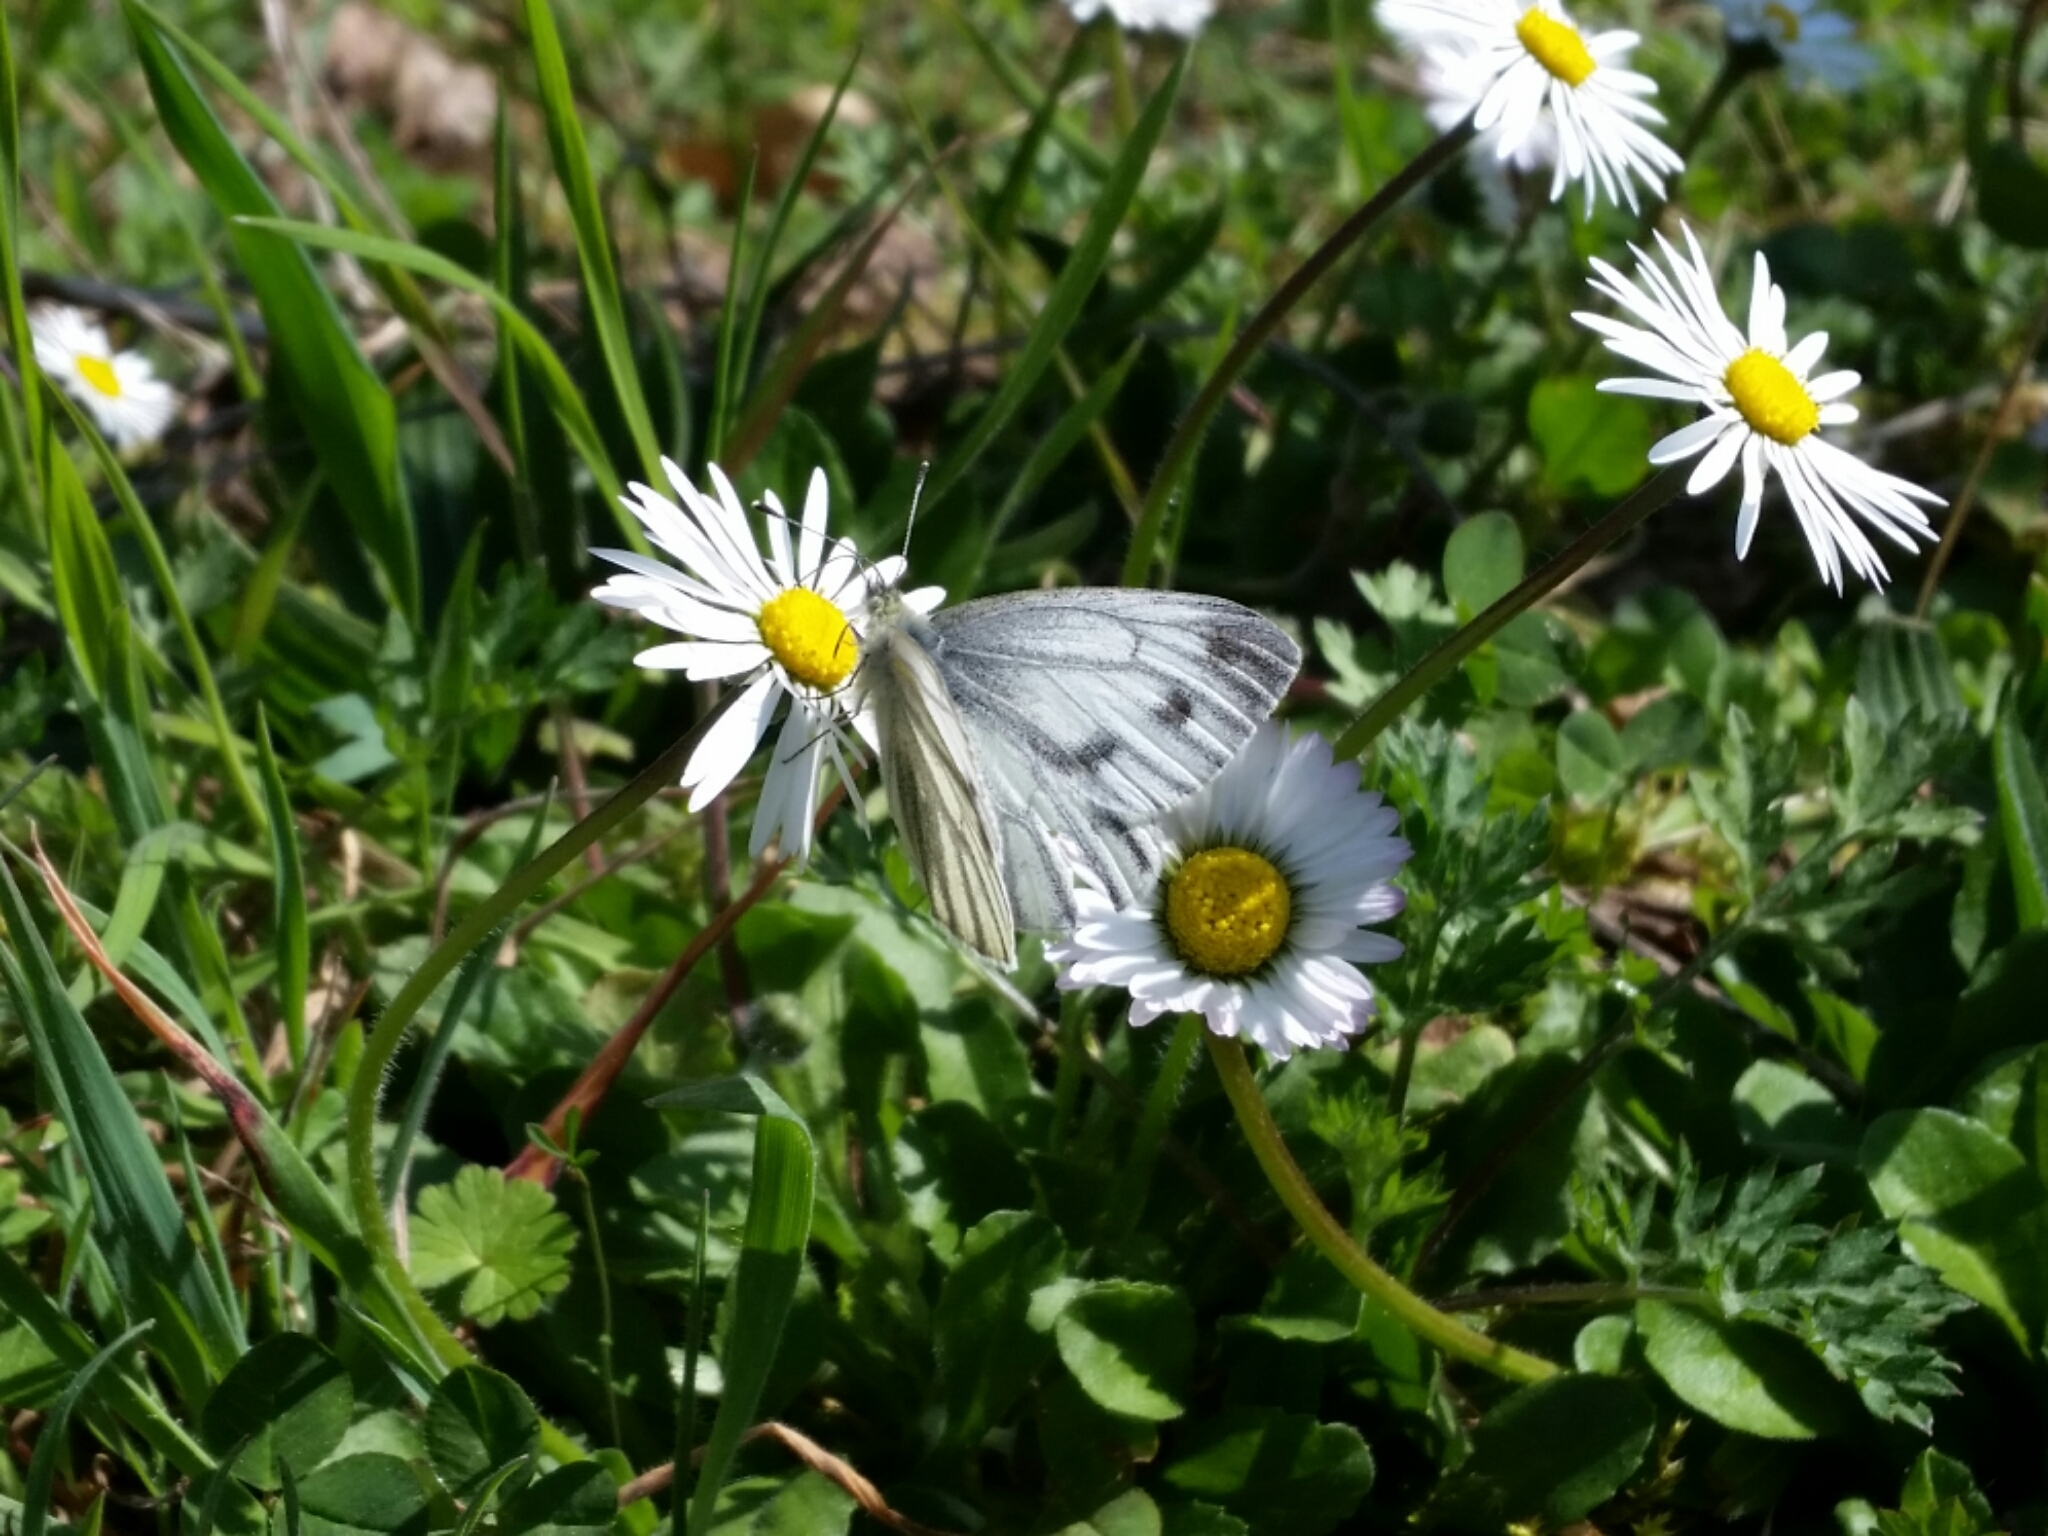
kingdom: Animalia
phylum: Arthropoda
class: Insecta
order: Lepidoptera
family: Pieridae
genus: Pieris
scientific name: Pieris napi
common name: Green-veined white
